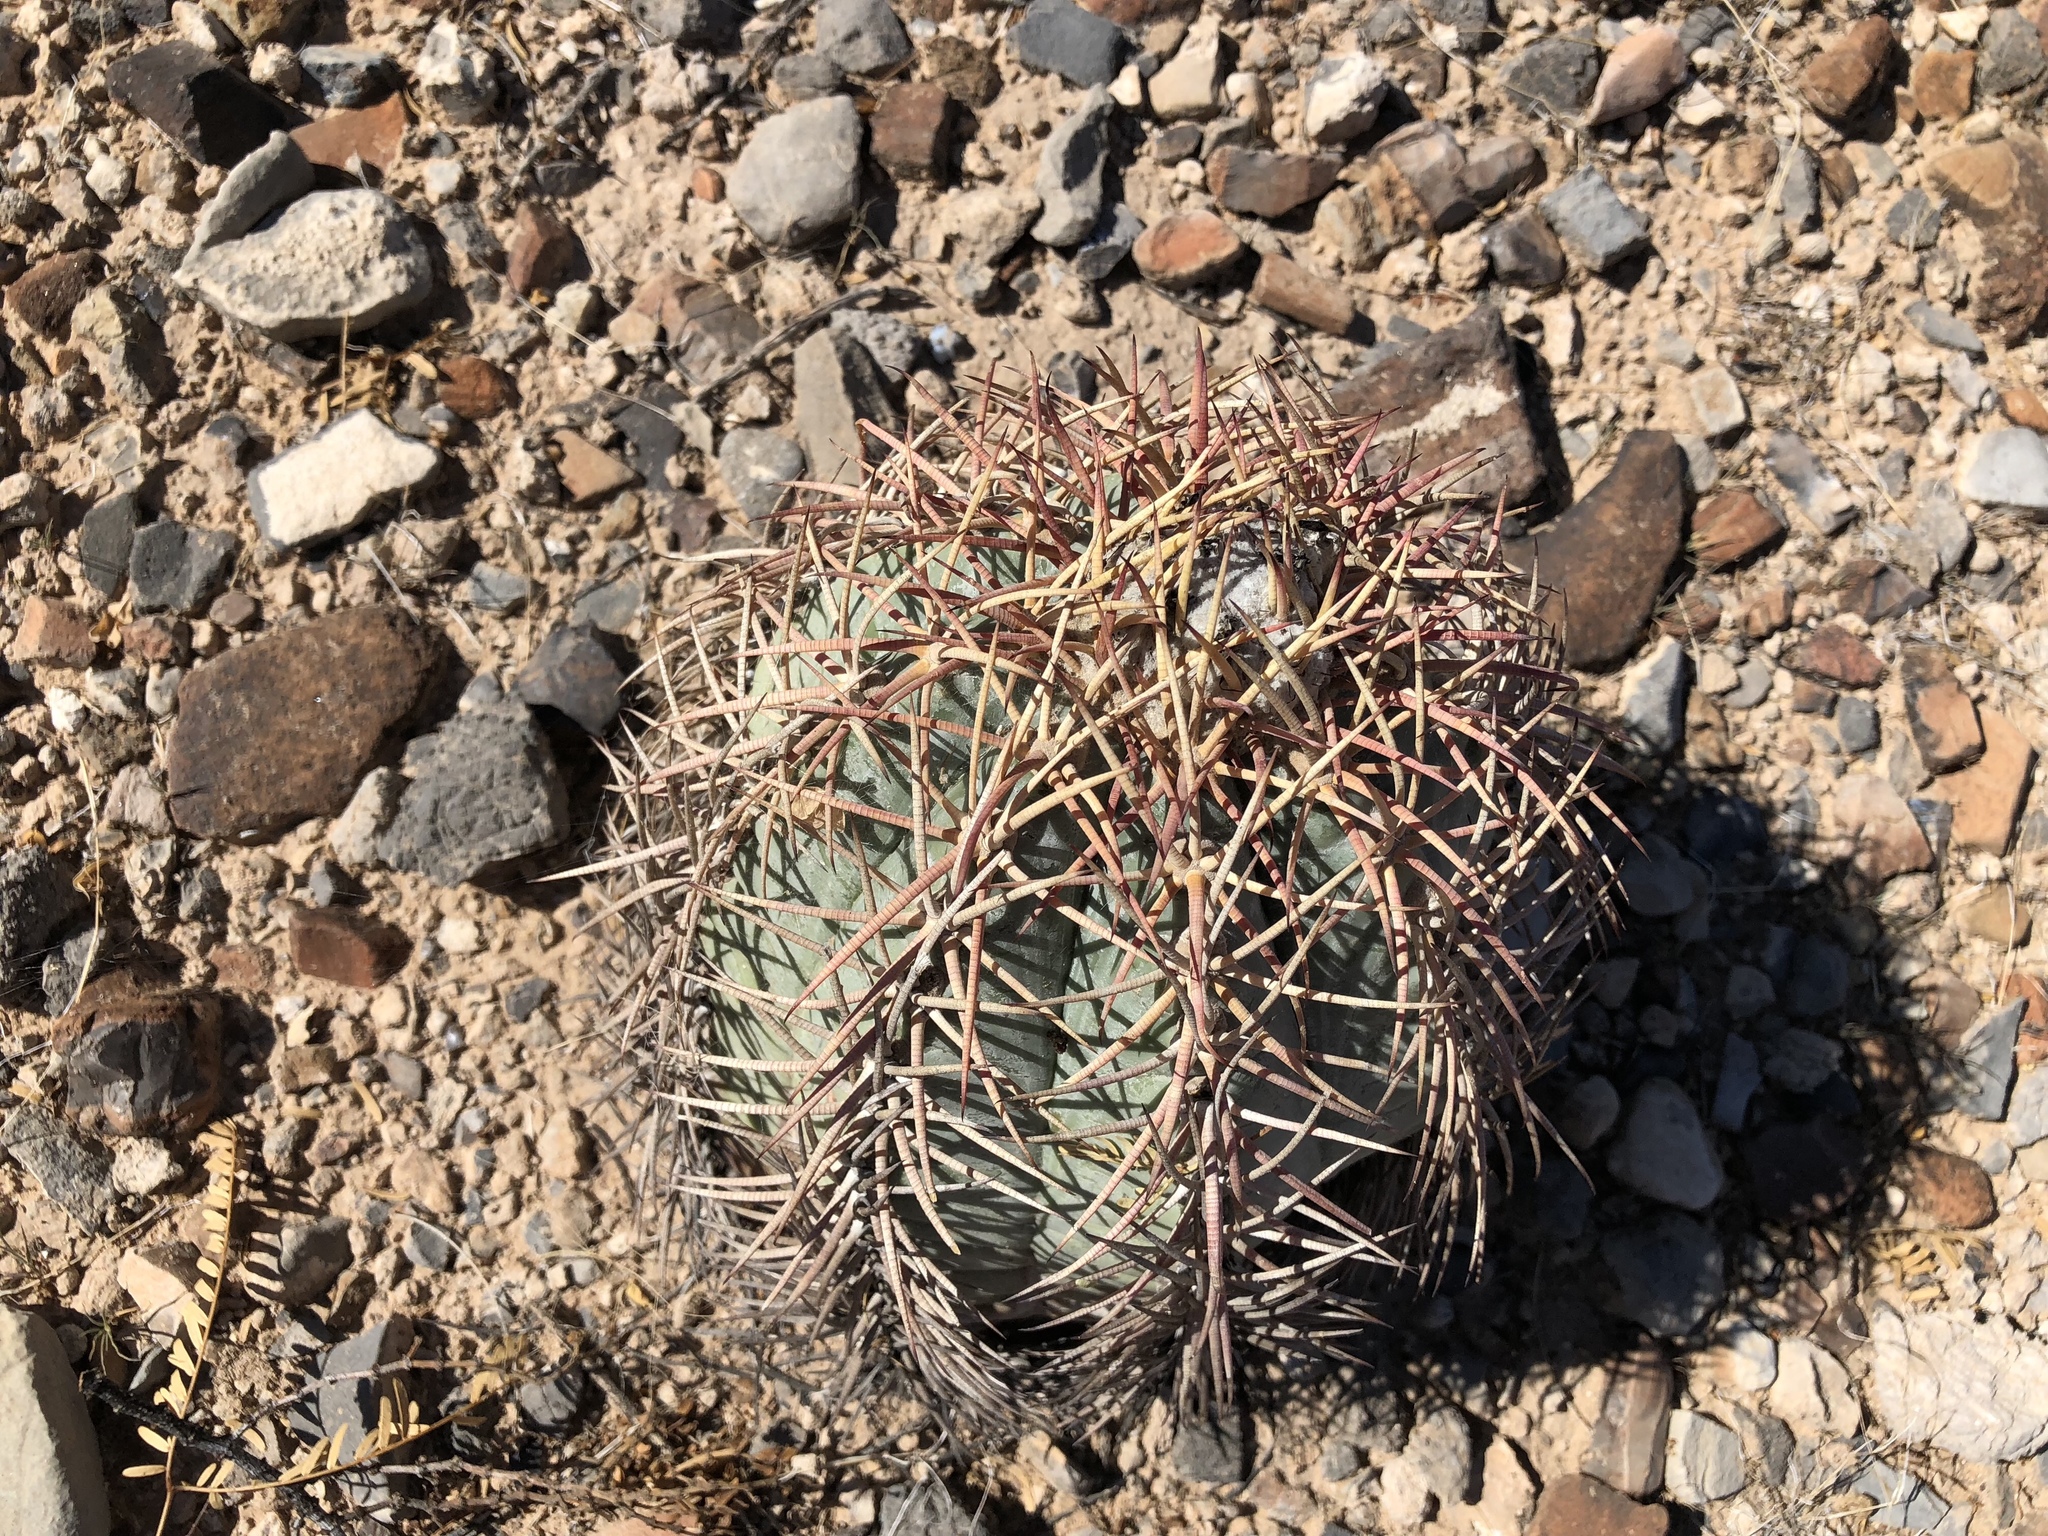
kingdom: Plantae
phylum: Tracheophyta
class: Magnoliopsida
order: Caryophyllales
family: Cactaceae
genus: Echinocactus
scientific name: Echinocactus horizonthalonius
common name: Devilshead
